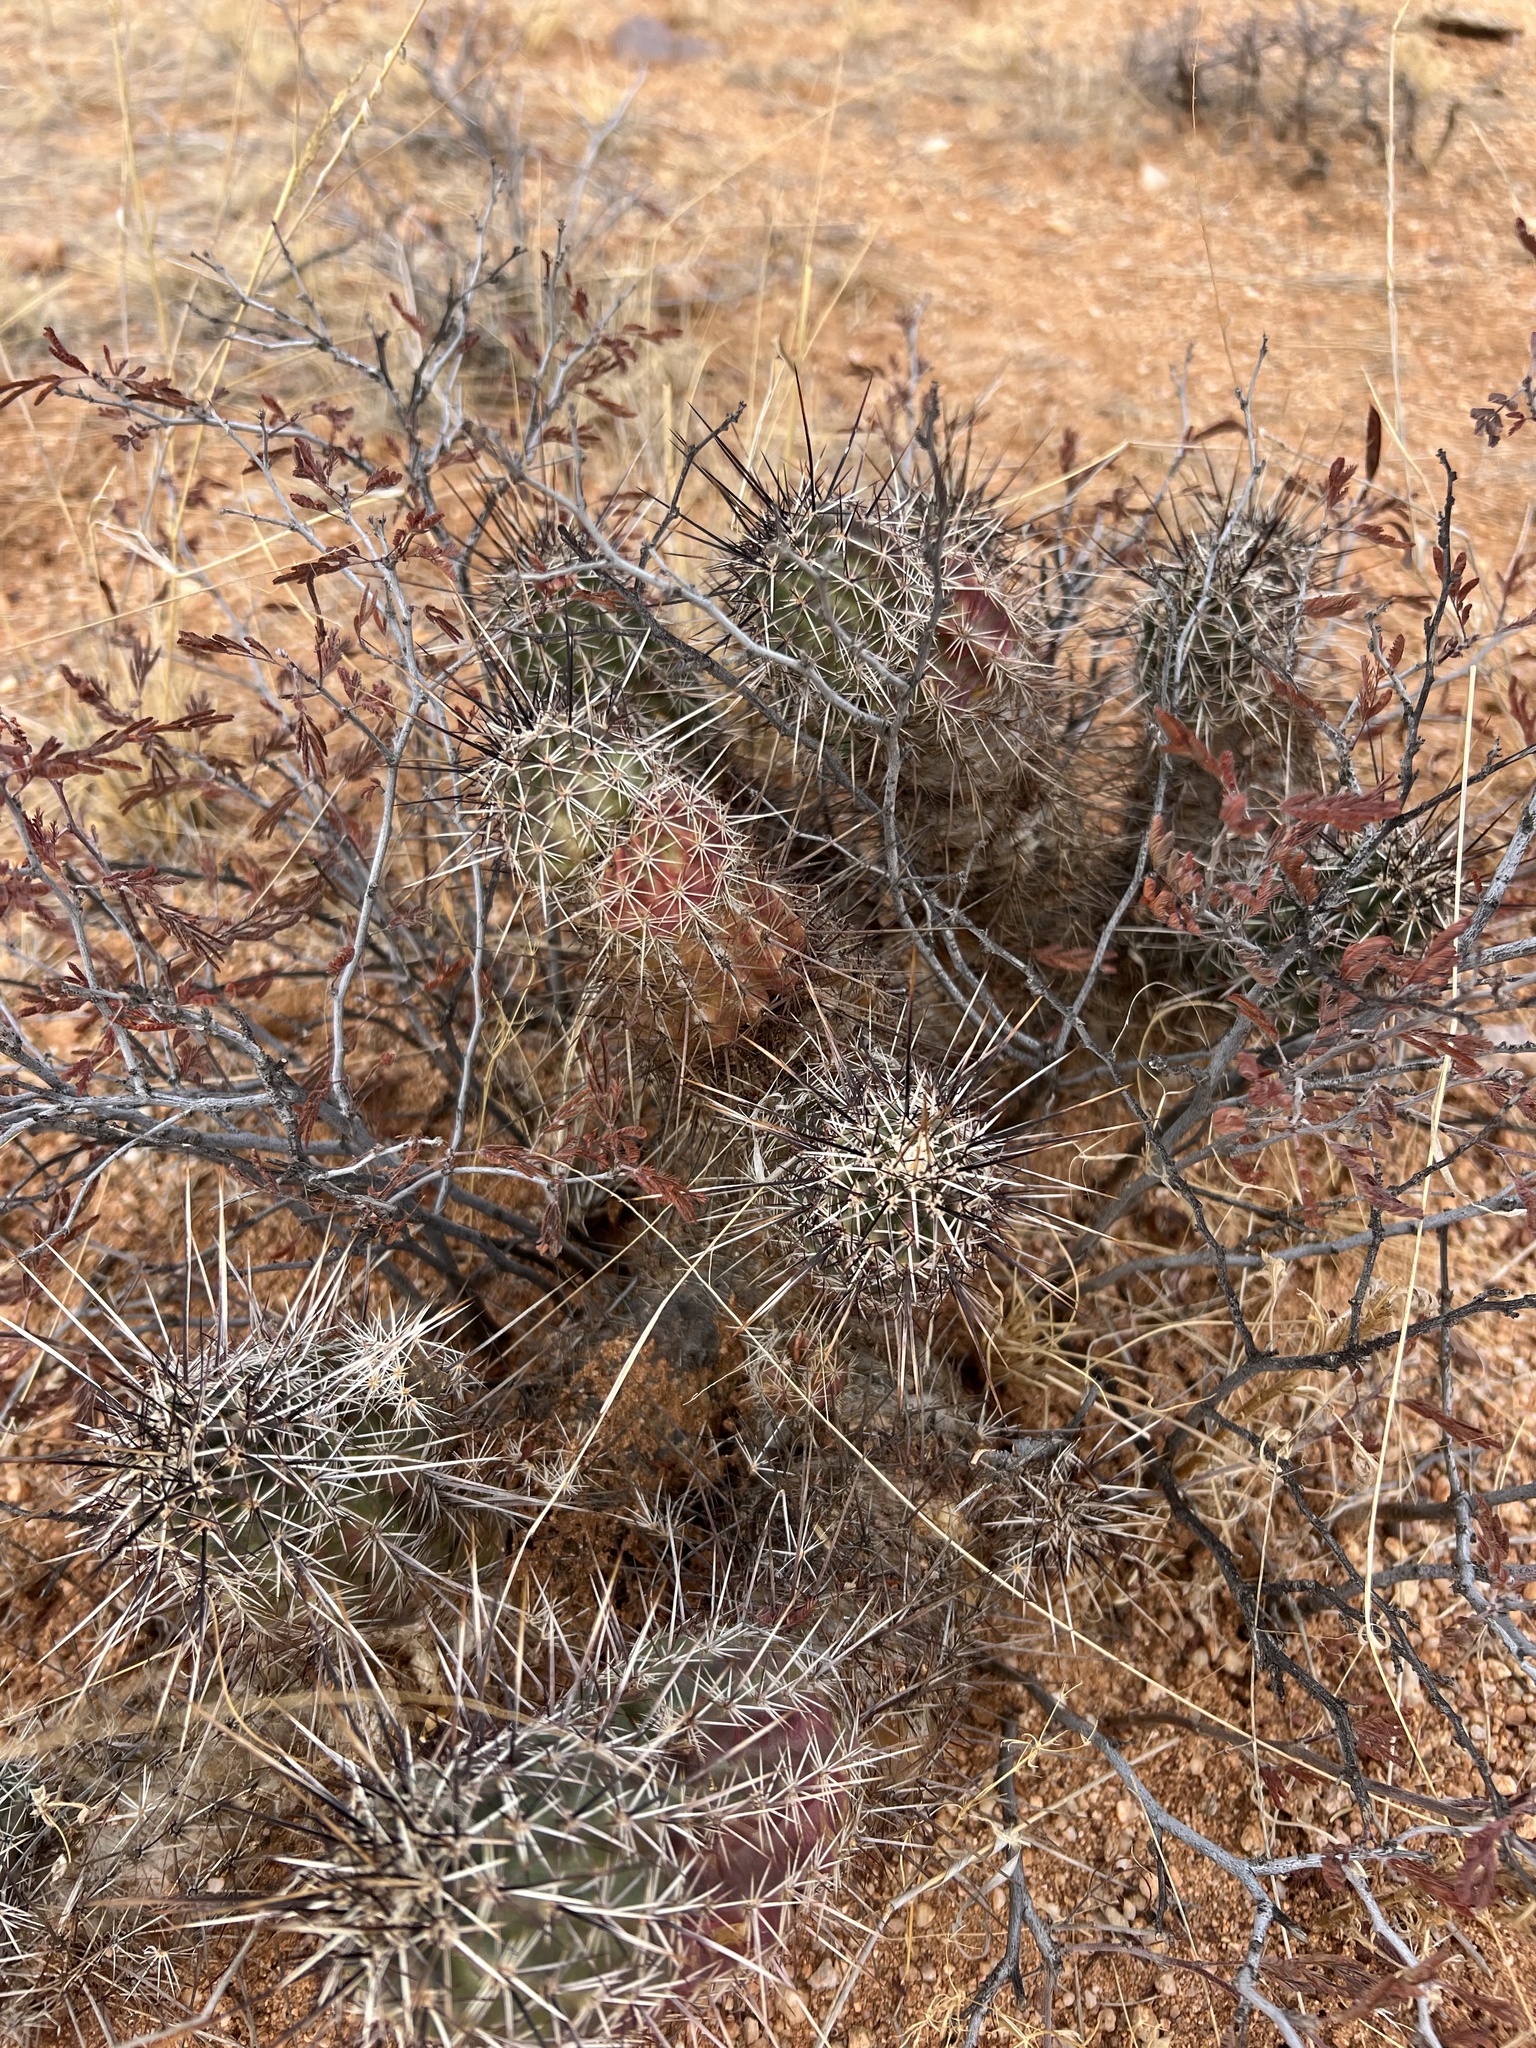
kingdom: Plantae
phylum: Tracheophyta
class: Magnoliopsida
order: Caryophyllales
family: Cactaceae
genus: Echinocereus
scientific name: Echinocereus fasciculatus
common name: Bundle hedgehog
